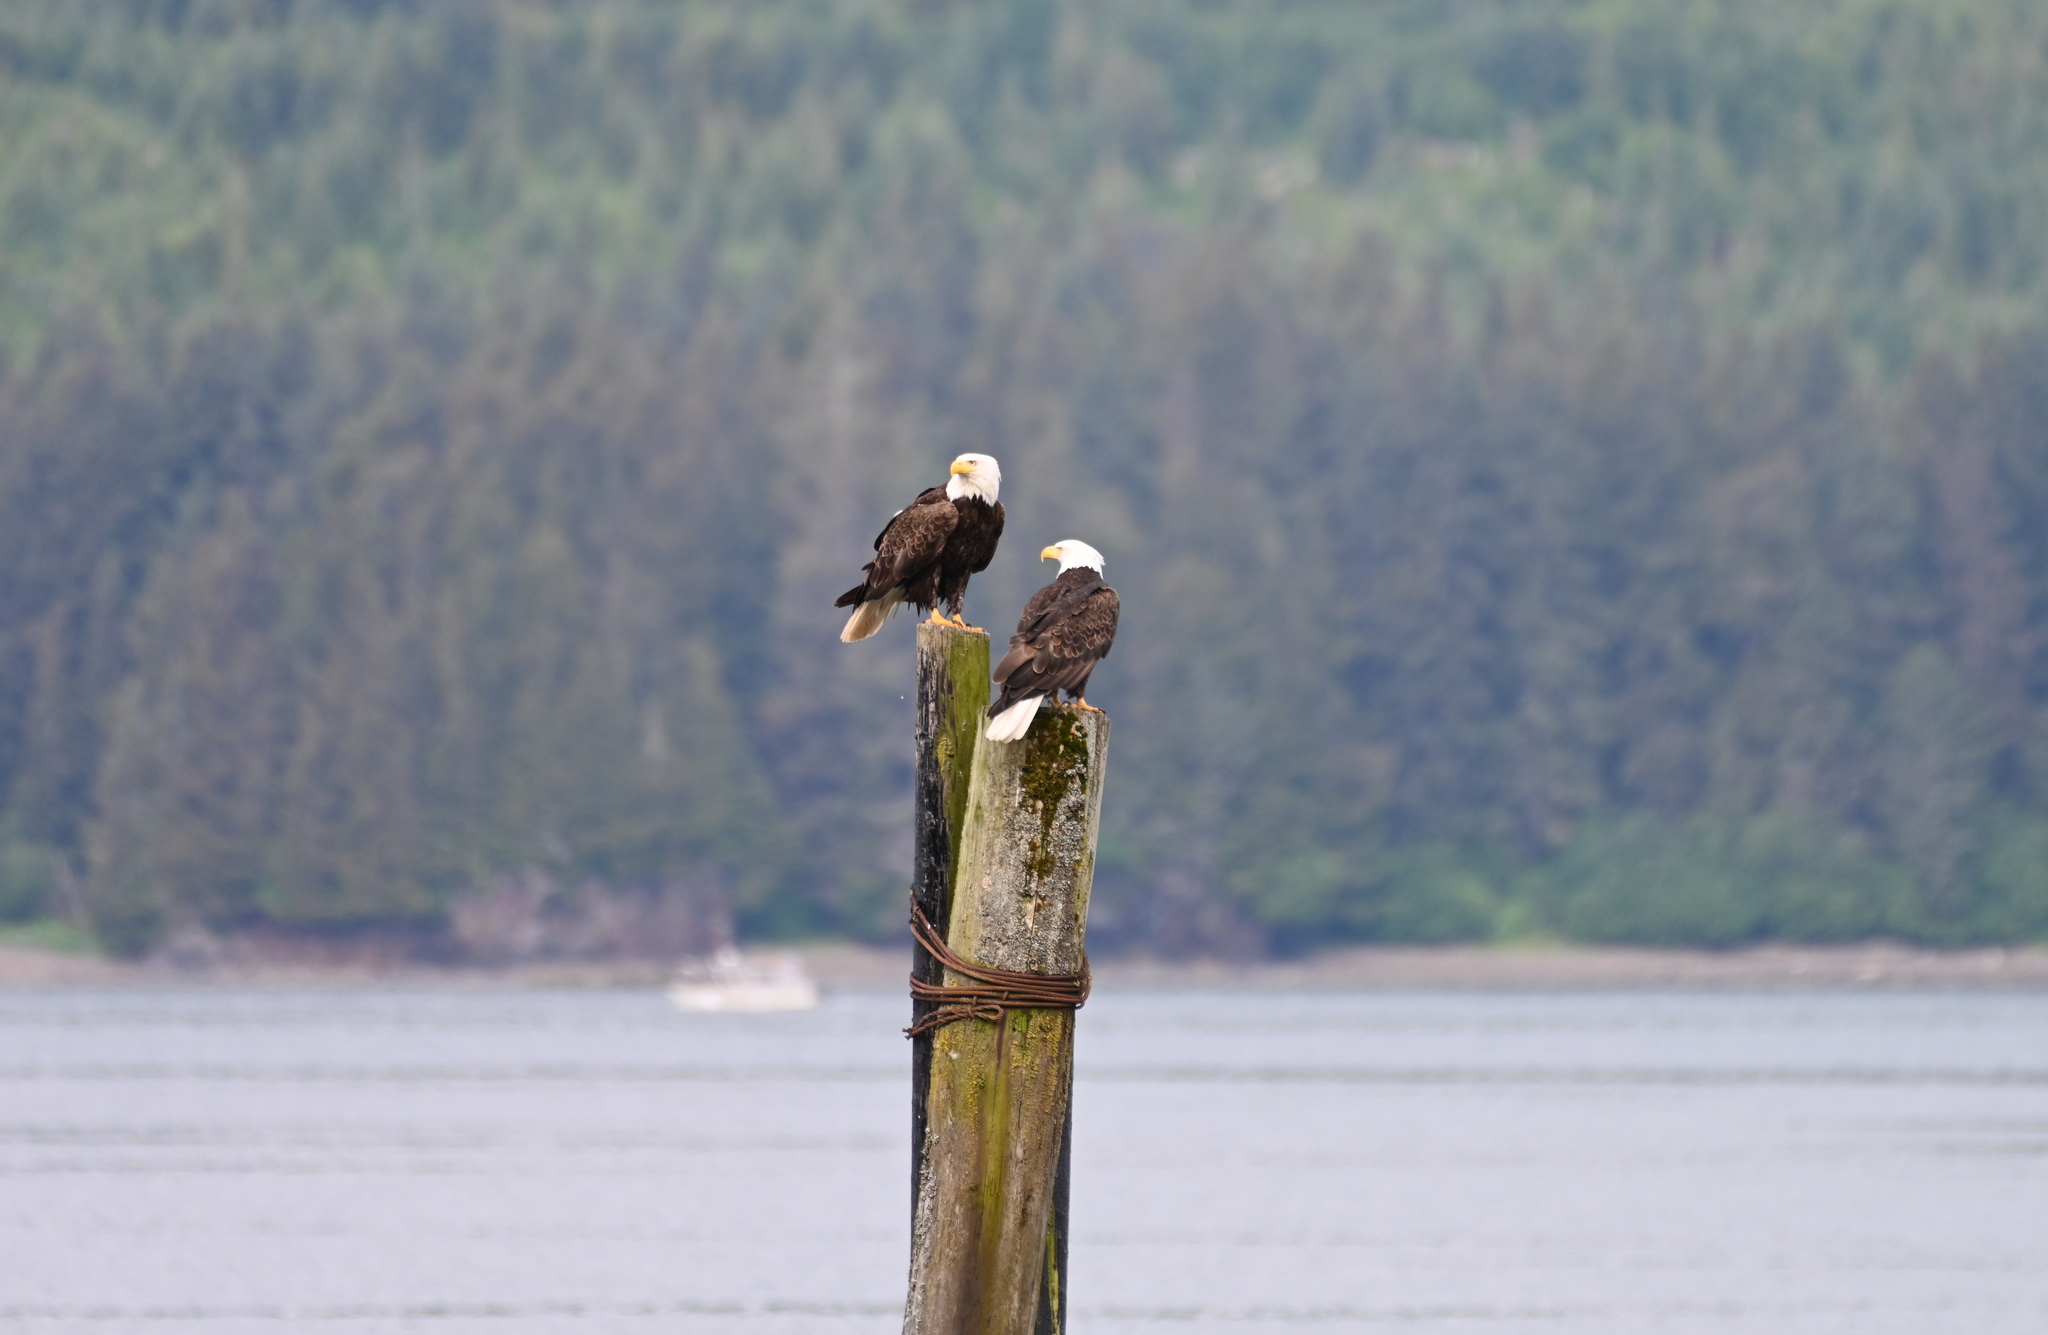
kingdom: Animalia
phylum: Chordata
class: Aves
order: Accipitriformes
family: Accipitridae
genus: Haliaeetus
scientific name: Haliaeetus leucocephalus
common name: Bald eagle
